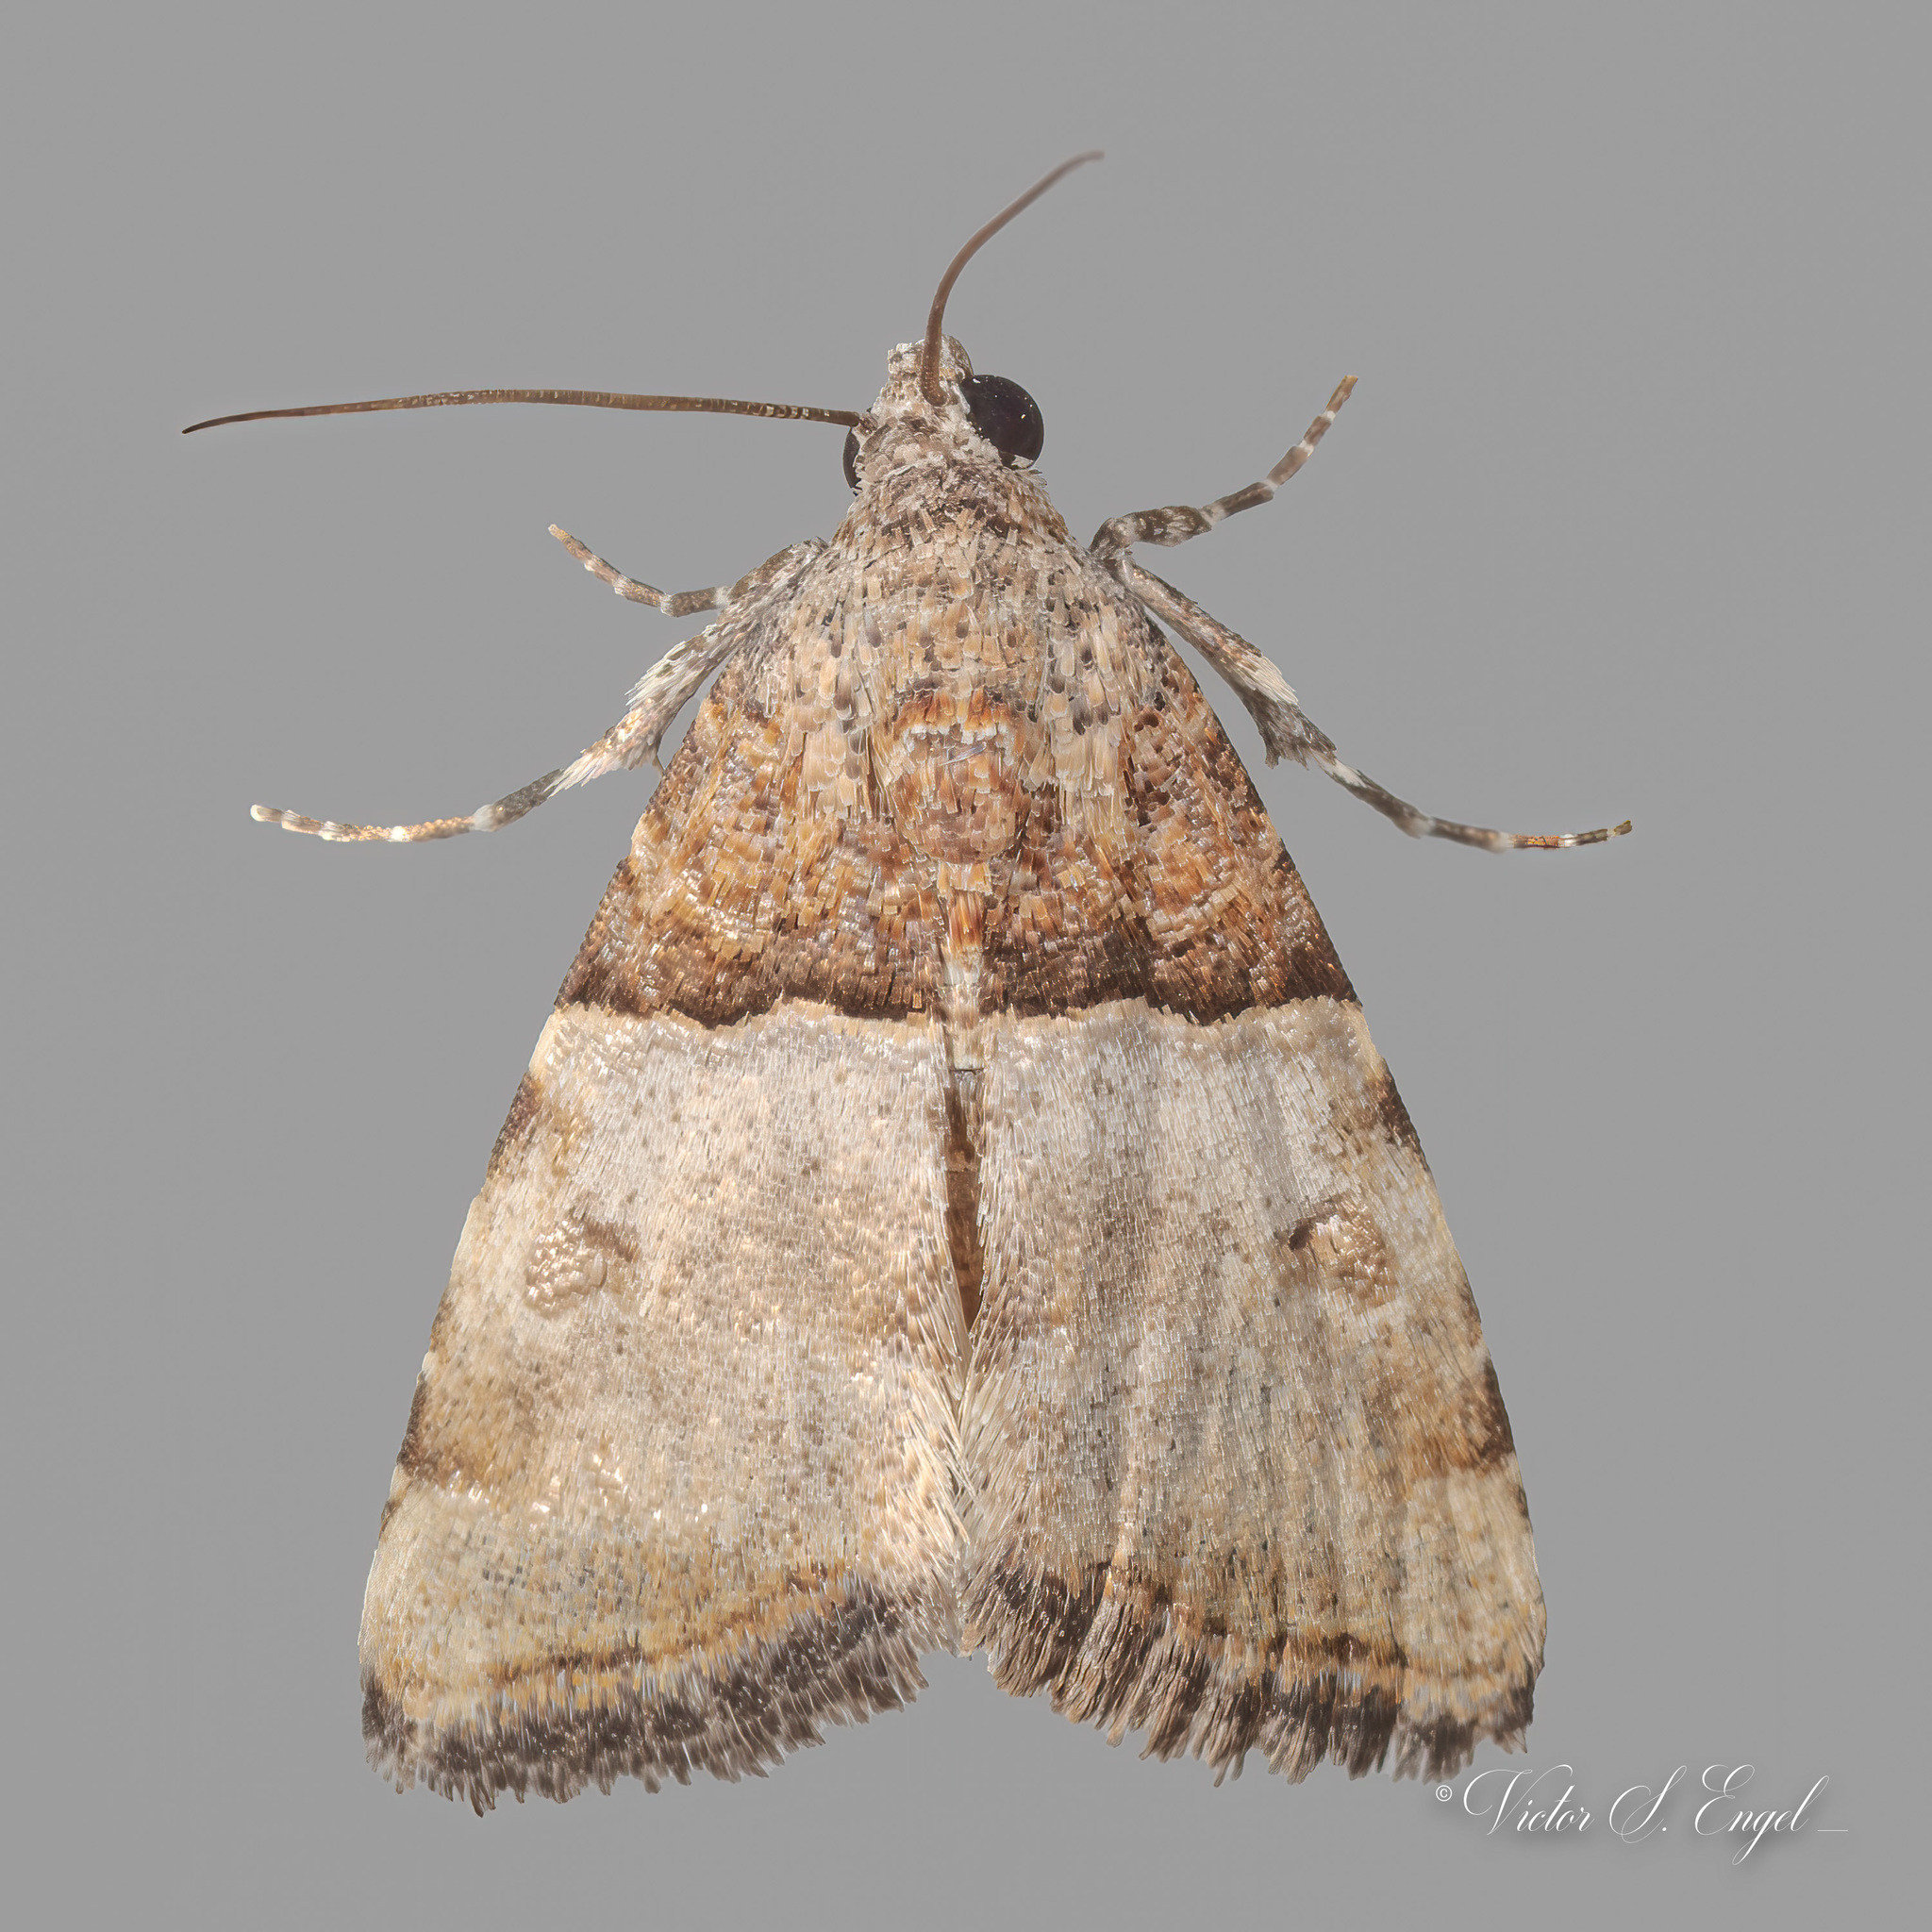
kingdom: Animalia
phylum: Arthropoda
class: Insecta
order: Lepidoptera
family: Noctuidae
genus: Cobubatha
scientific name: Cobubatha dividua
